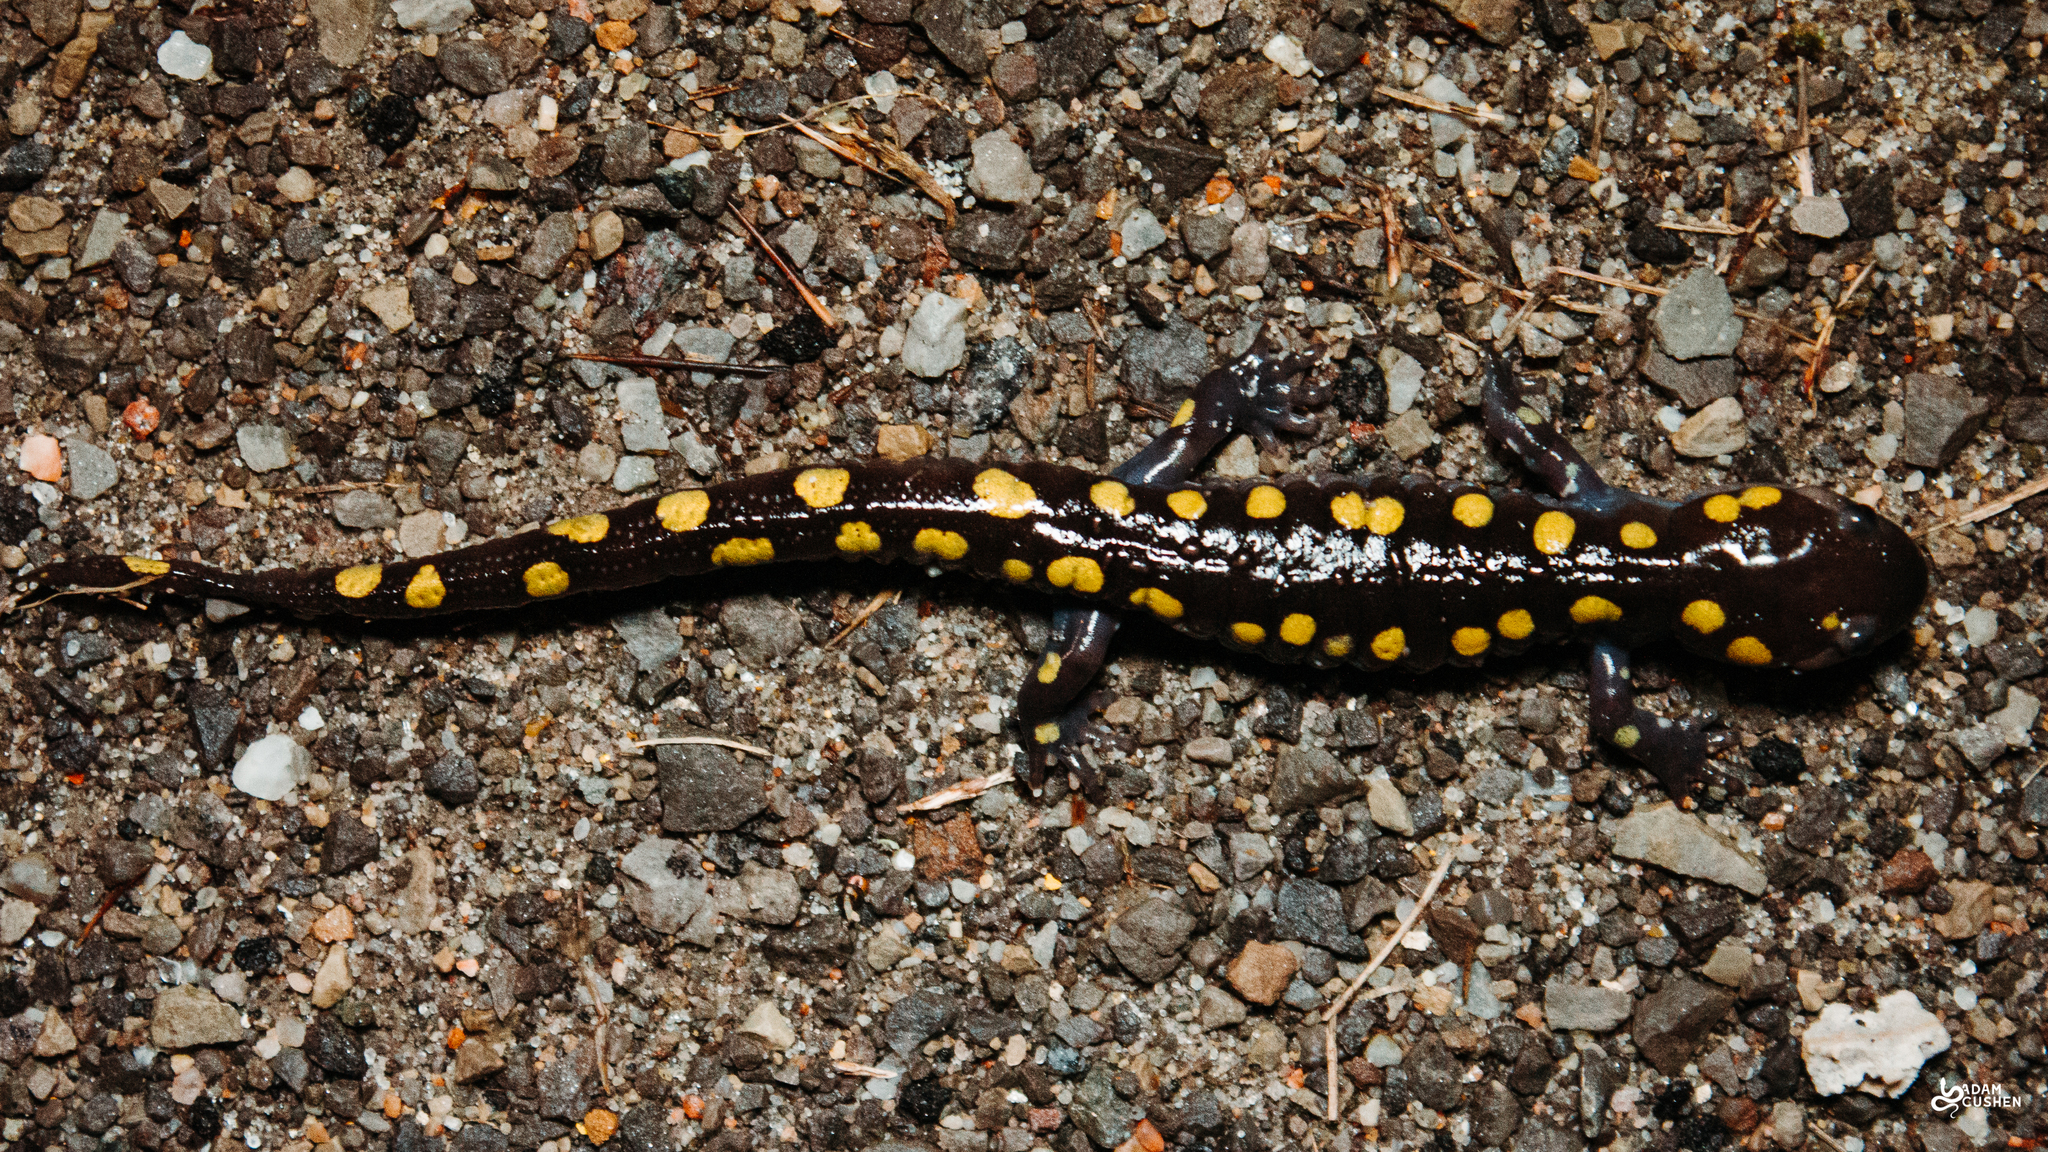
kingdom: Animalia
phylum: Chordata
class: Amphibia
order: Caudata
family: Ambystomatidae
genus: Ambystoma
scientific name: Ambystoma maculatum
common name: Spotted salamander
